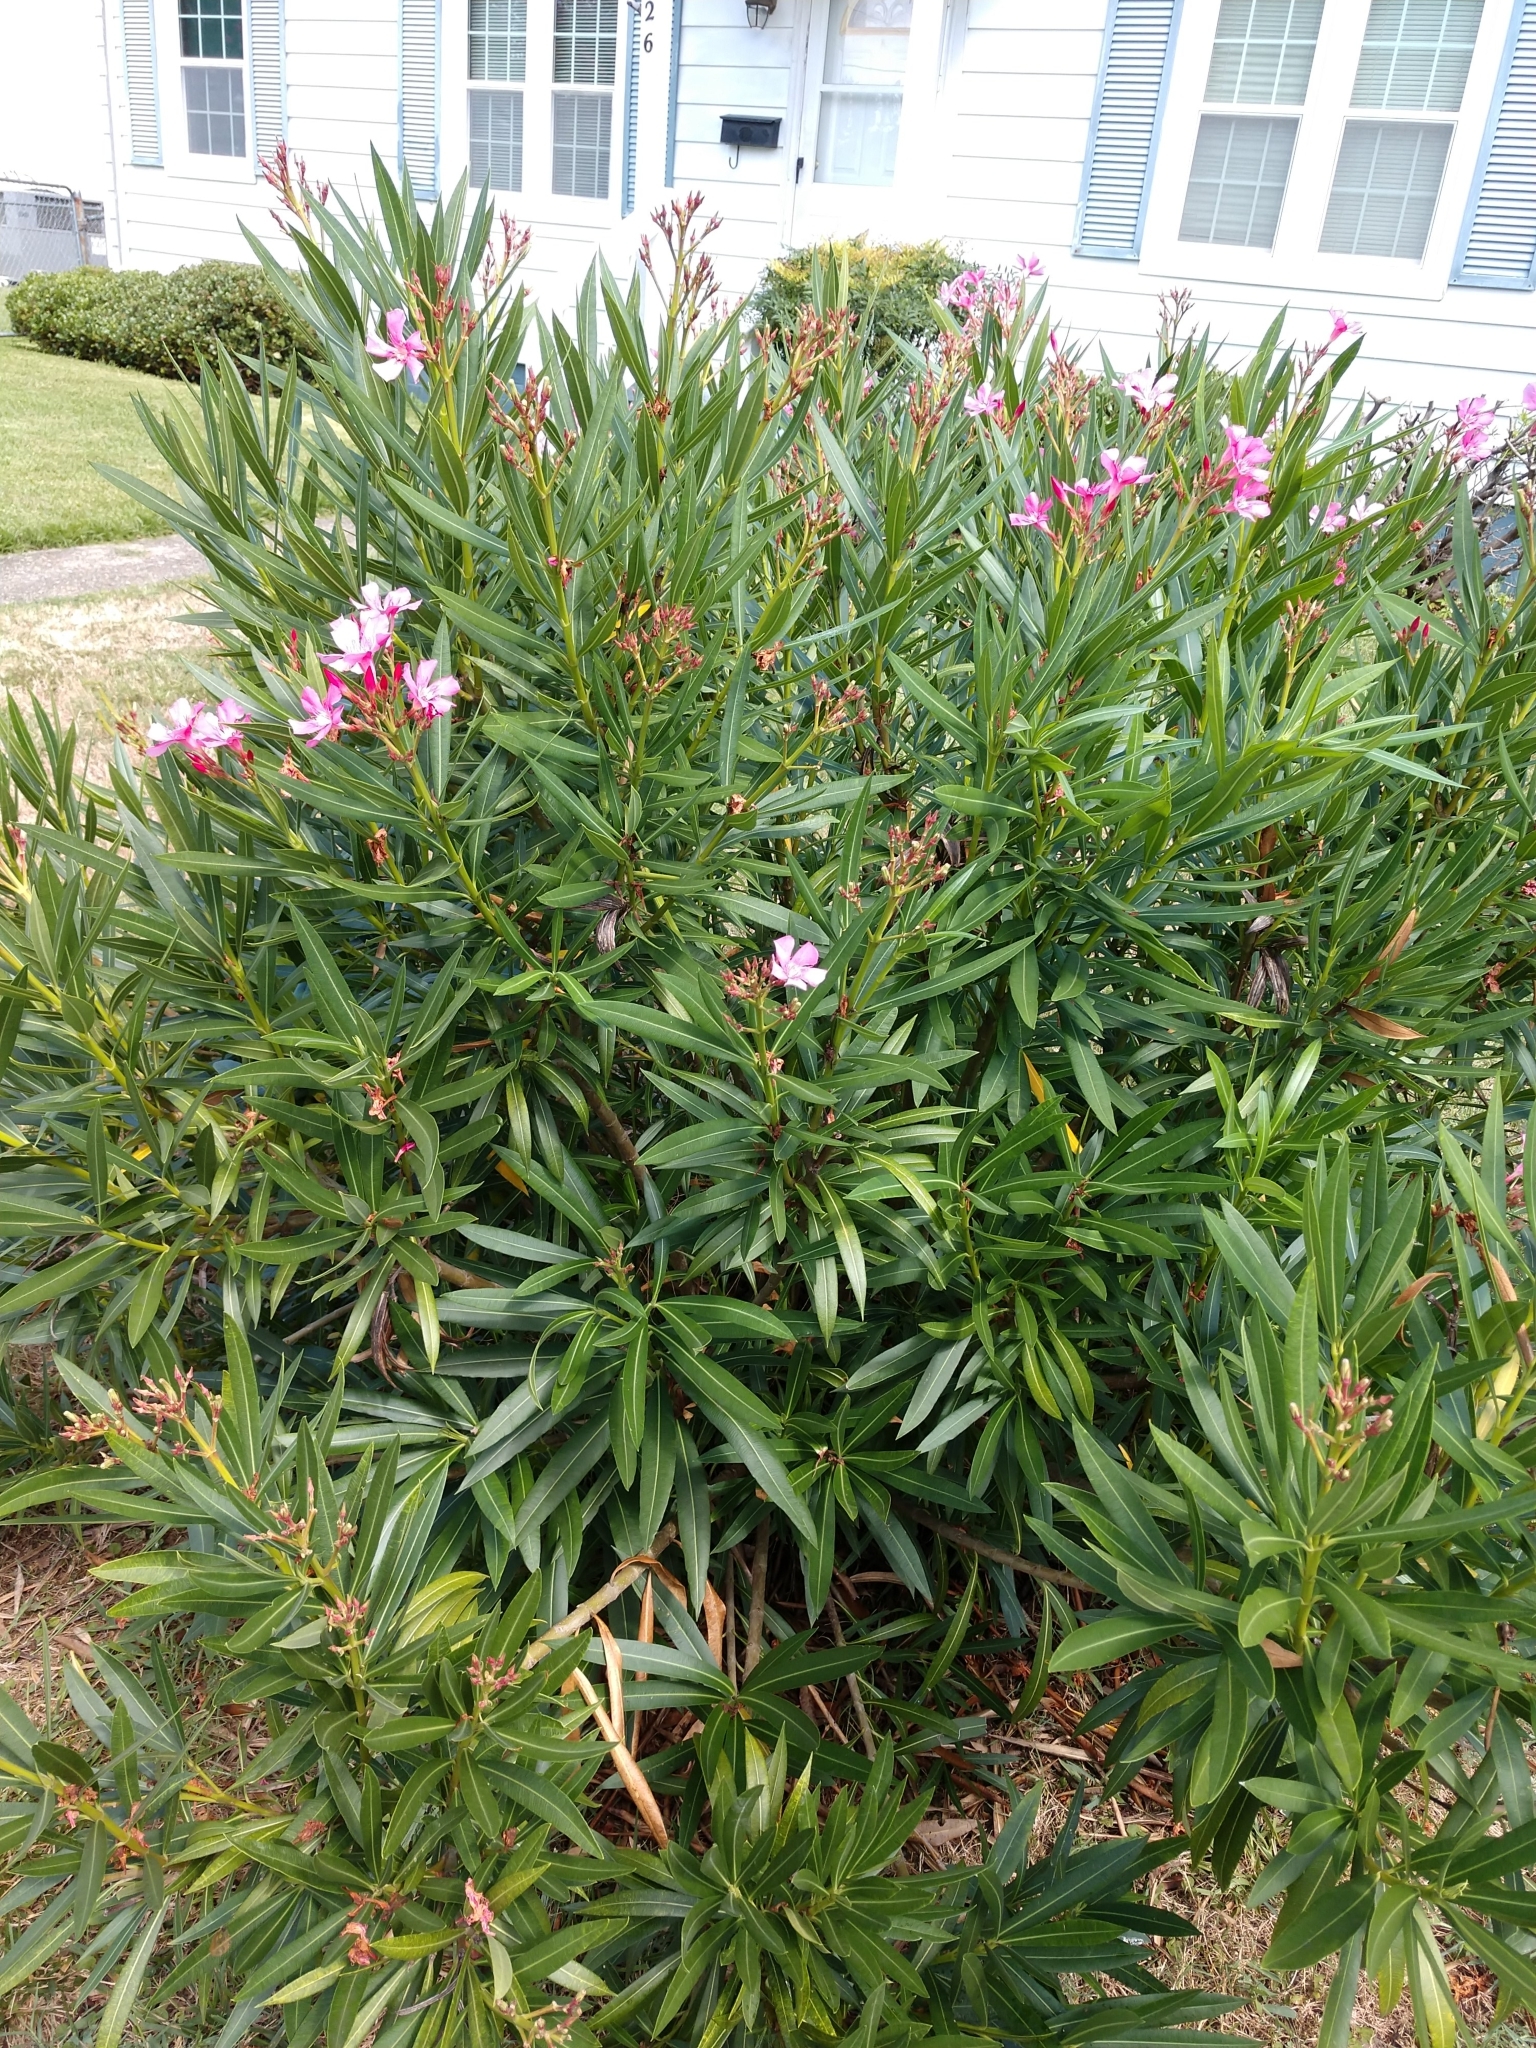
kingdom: Plantae
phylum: Tracheophyta
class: Magnoliopsida
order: Gentianales
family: Apocynaceae
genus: Nerium
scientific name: Nerium oleander
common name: Oleander
